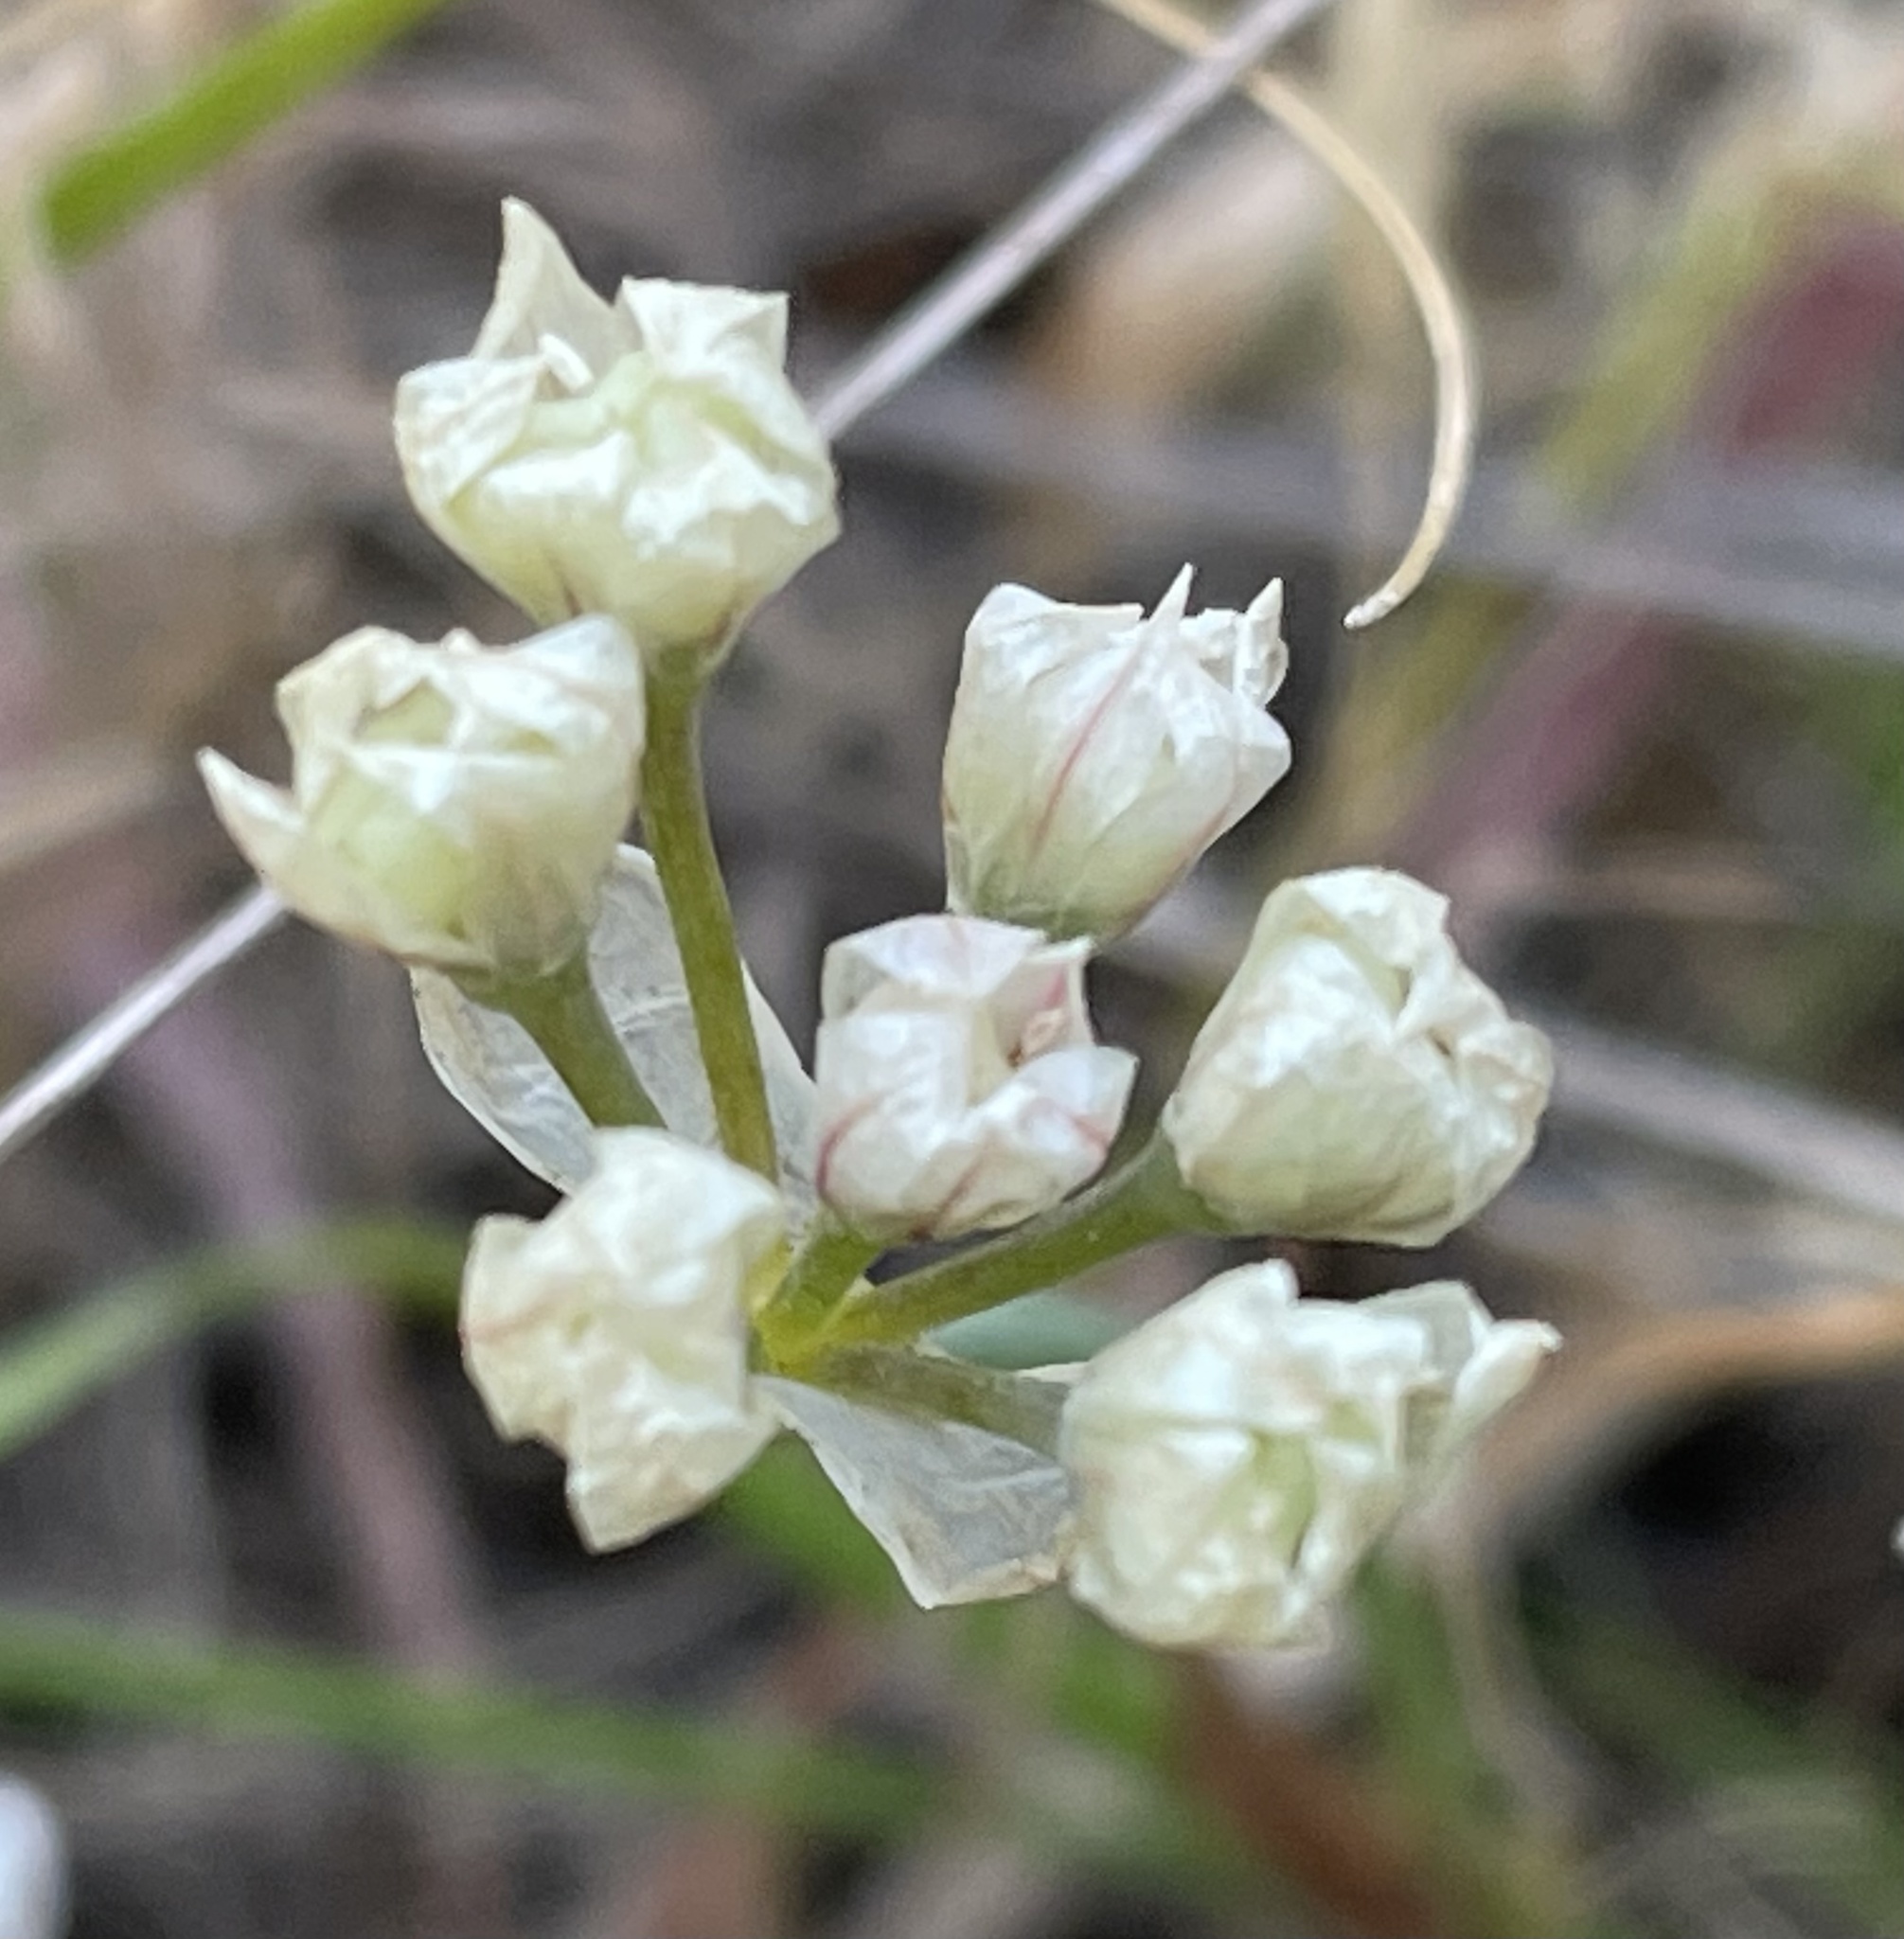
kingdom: Plantae
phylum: Tracheophyta
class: Liliopsida
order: Asparagales
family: Amaryllidaceae
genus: Allium
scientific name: Allium hickmanii
